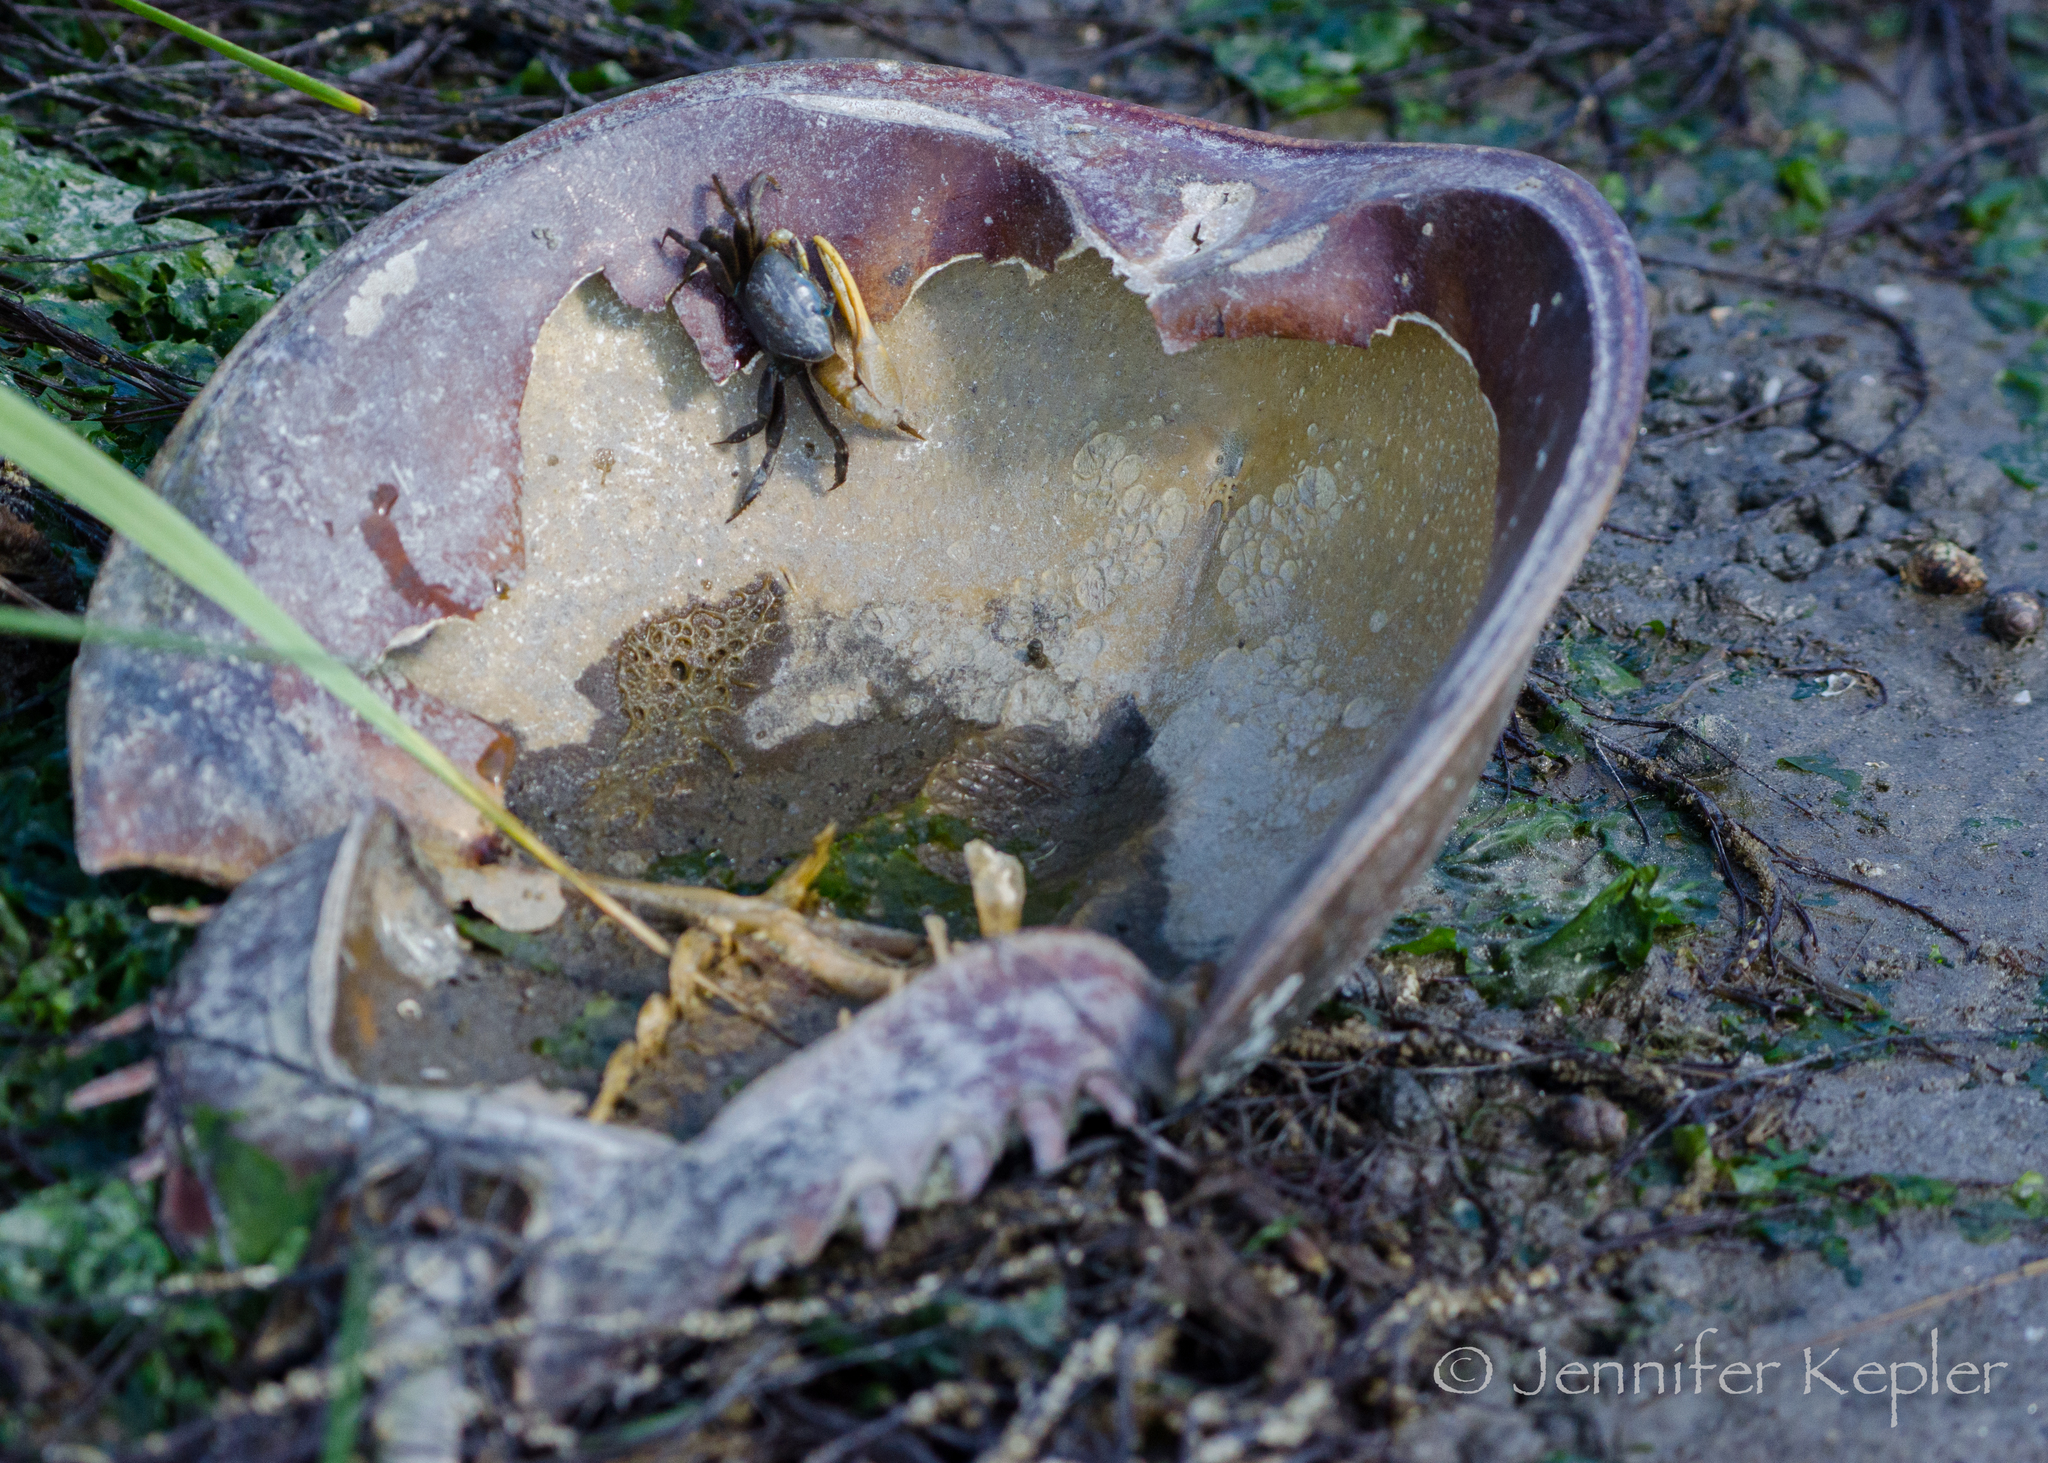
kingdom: Animalia
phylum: Arthropoda
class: Malacostraca
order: Decapoda
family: Ocypodidae
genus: Minuca
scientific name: Minuca pugnax
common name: Mud fiddler crab
